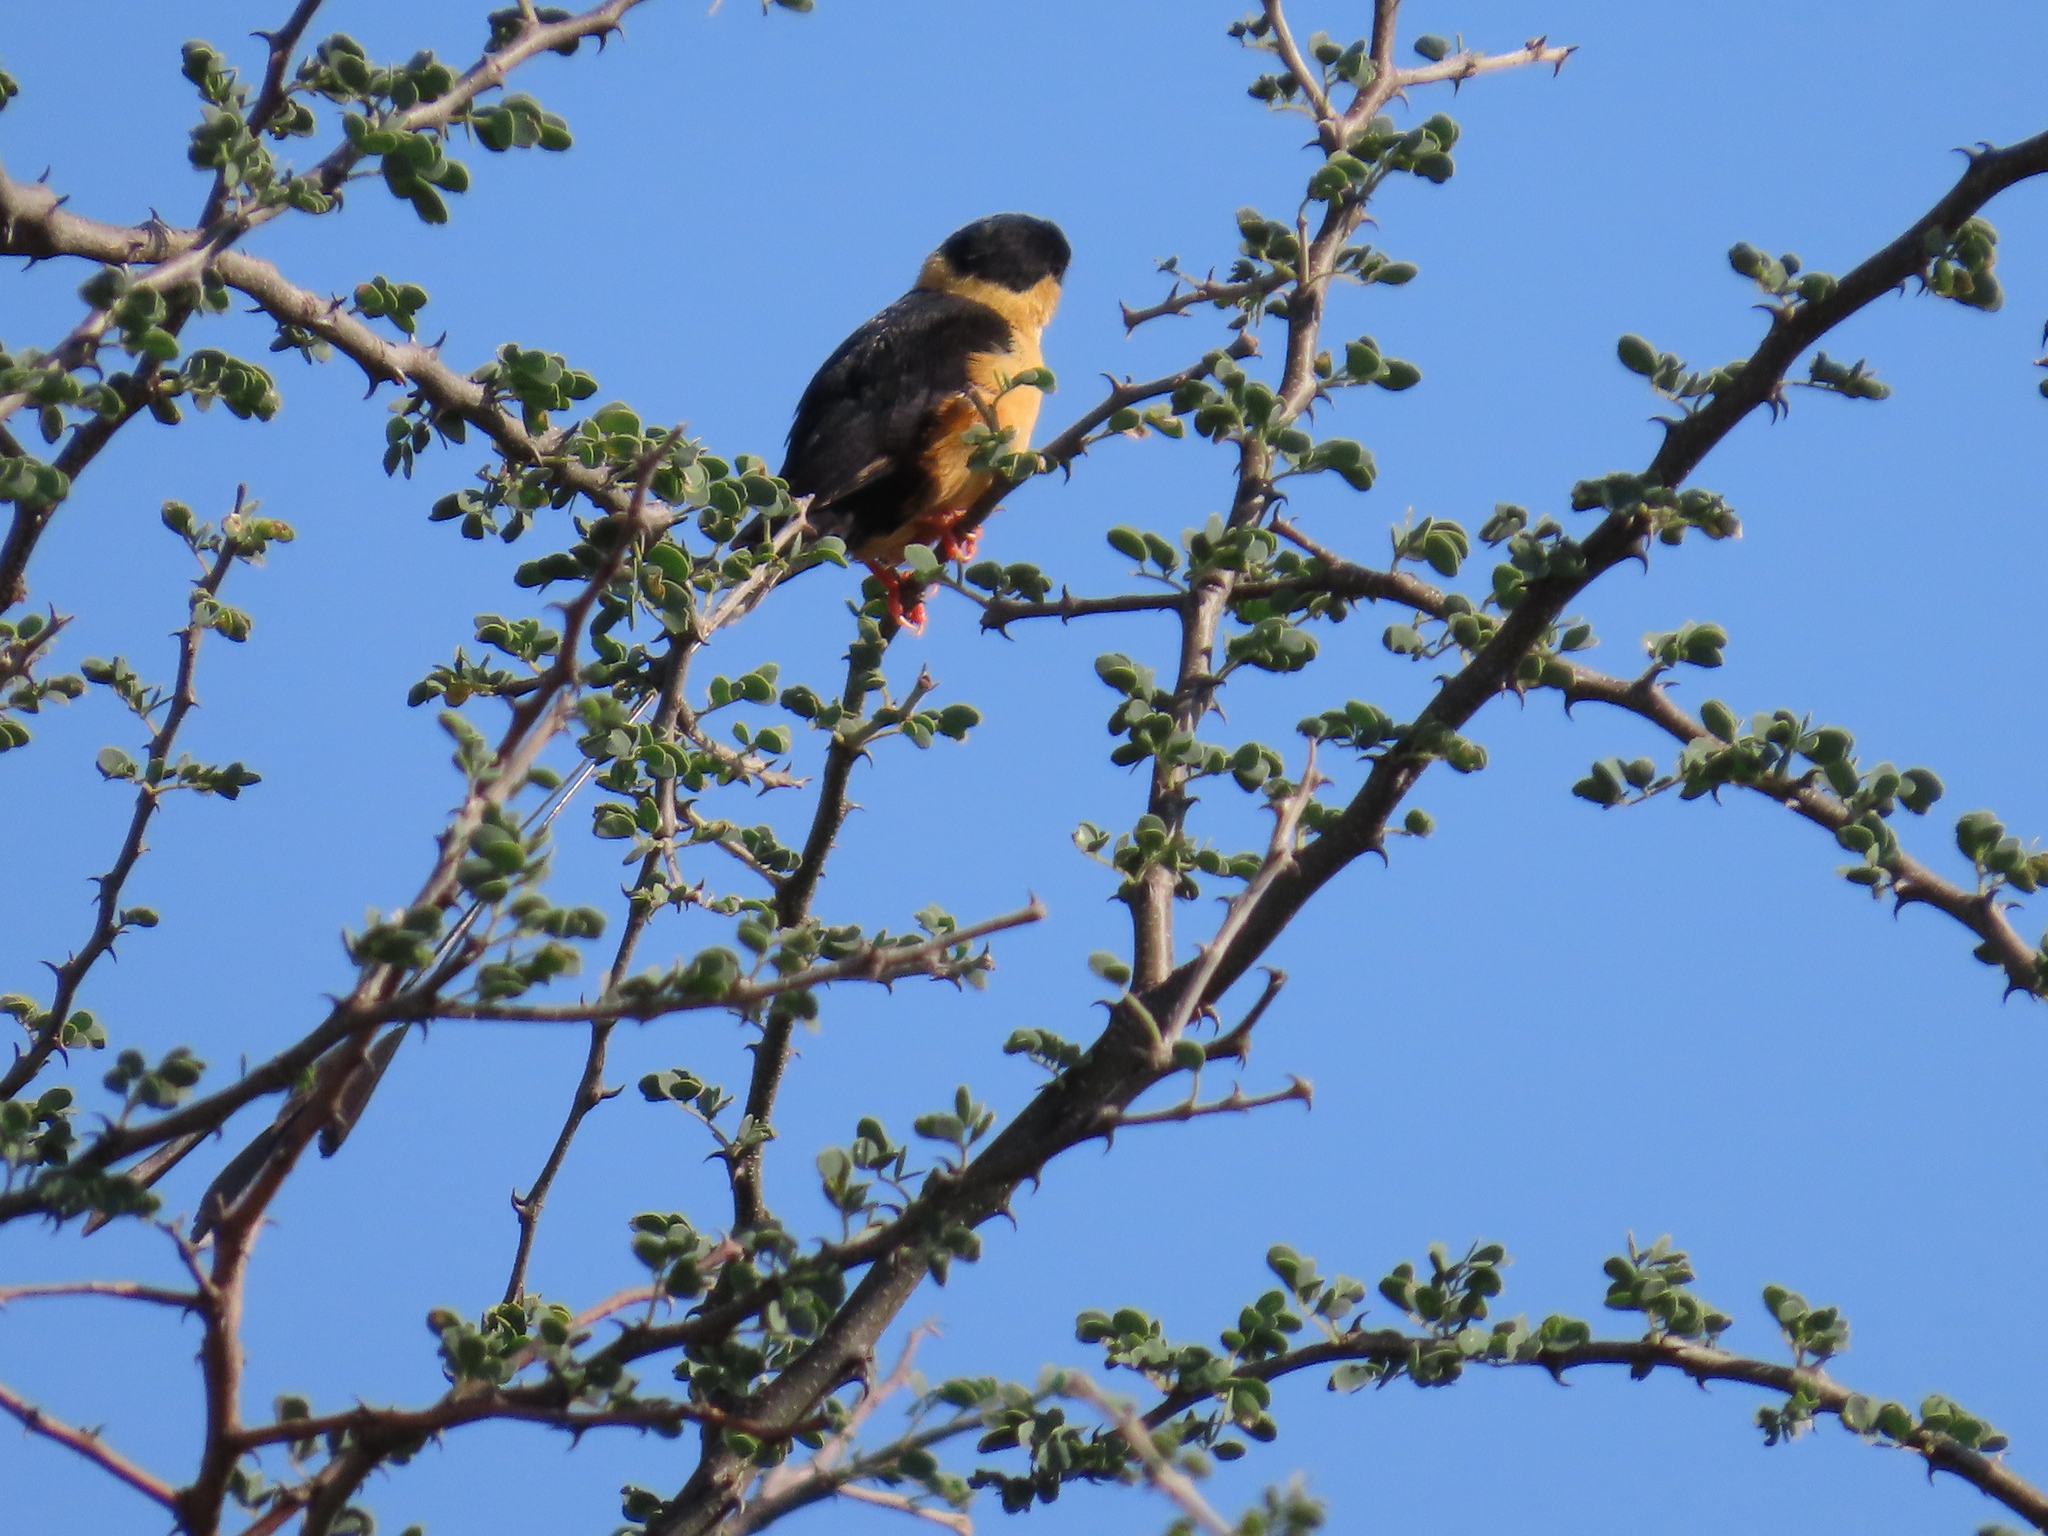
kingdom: Animalia
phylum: Chordata
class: Aves
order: Passeriformes
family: Viduidae
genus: Vidua
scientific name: Vidua regia
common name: Shaft-tailed whydah
